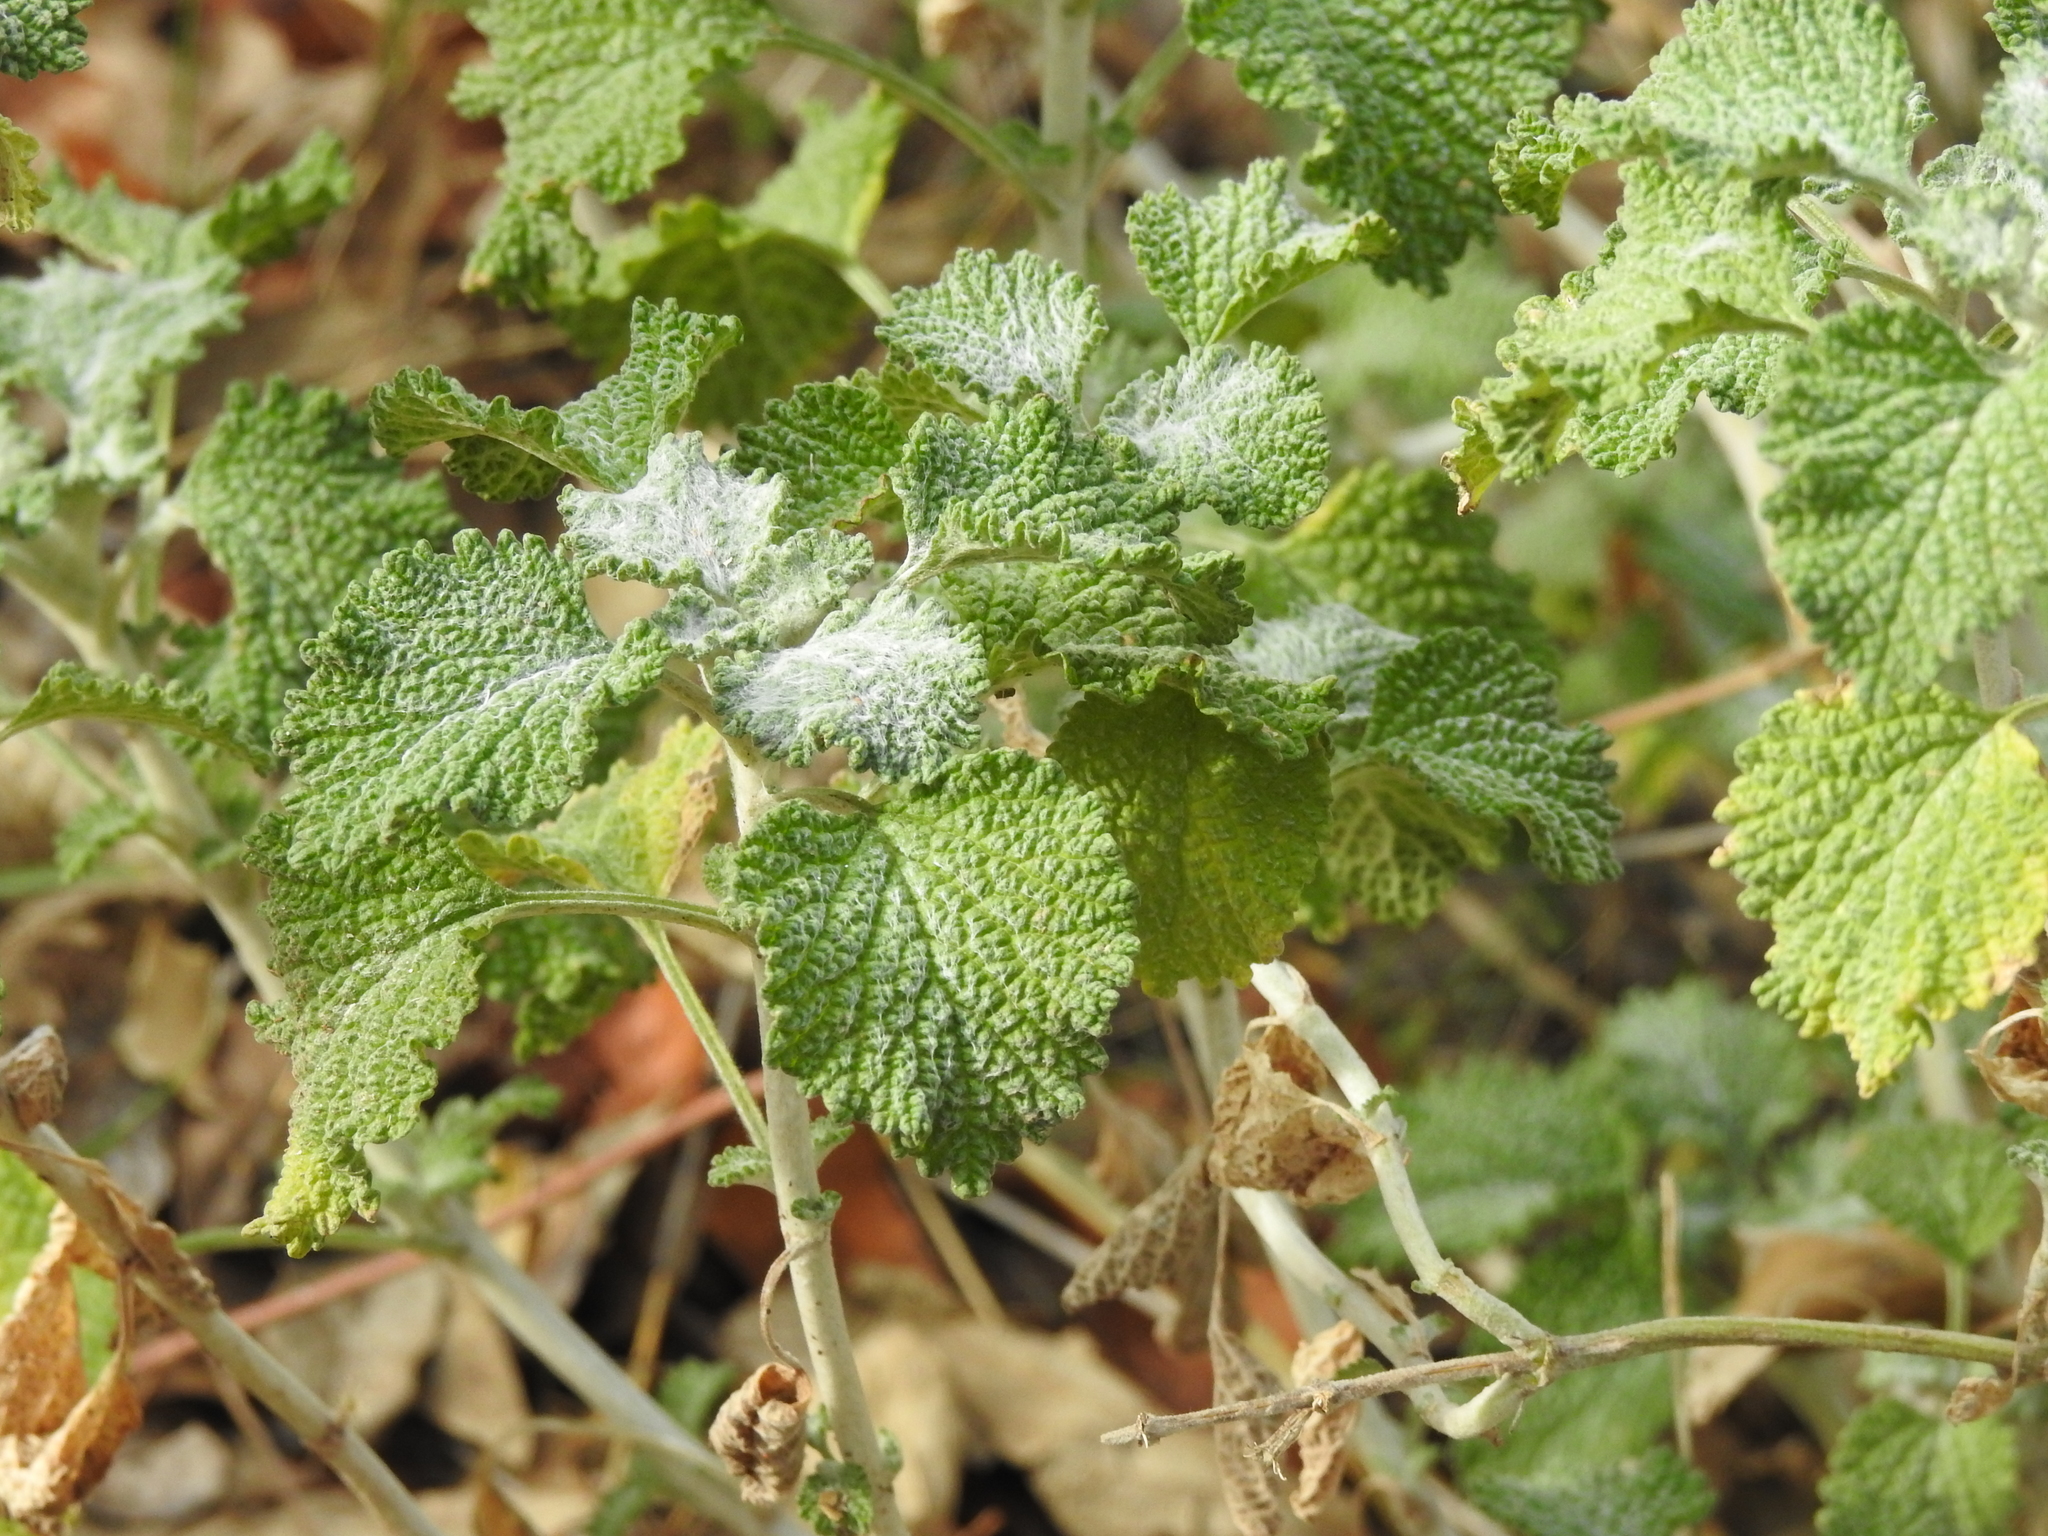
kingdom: Plantae
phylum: Tracheophyta
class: Magnoliopsida
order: Lamiales
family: Lamiaceae
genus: Marrubium
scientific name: Marrubium vulgare
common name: Horehound
